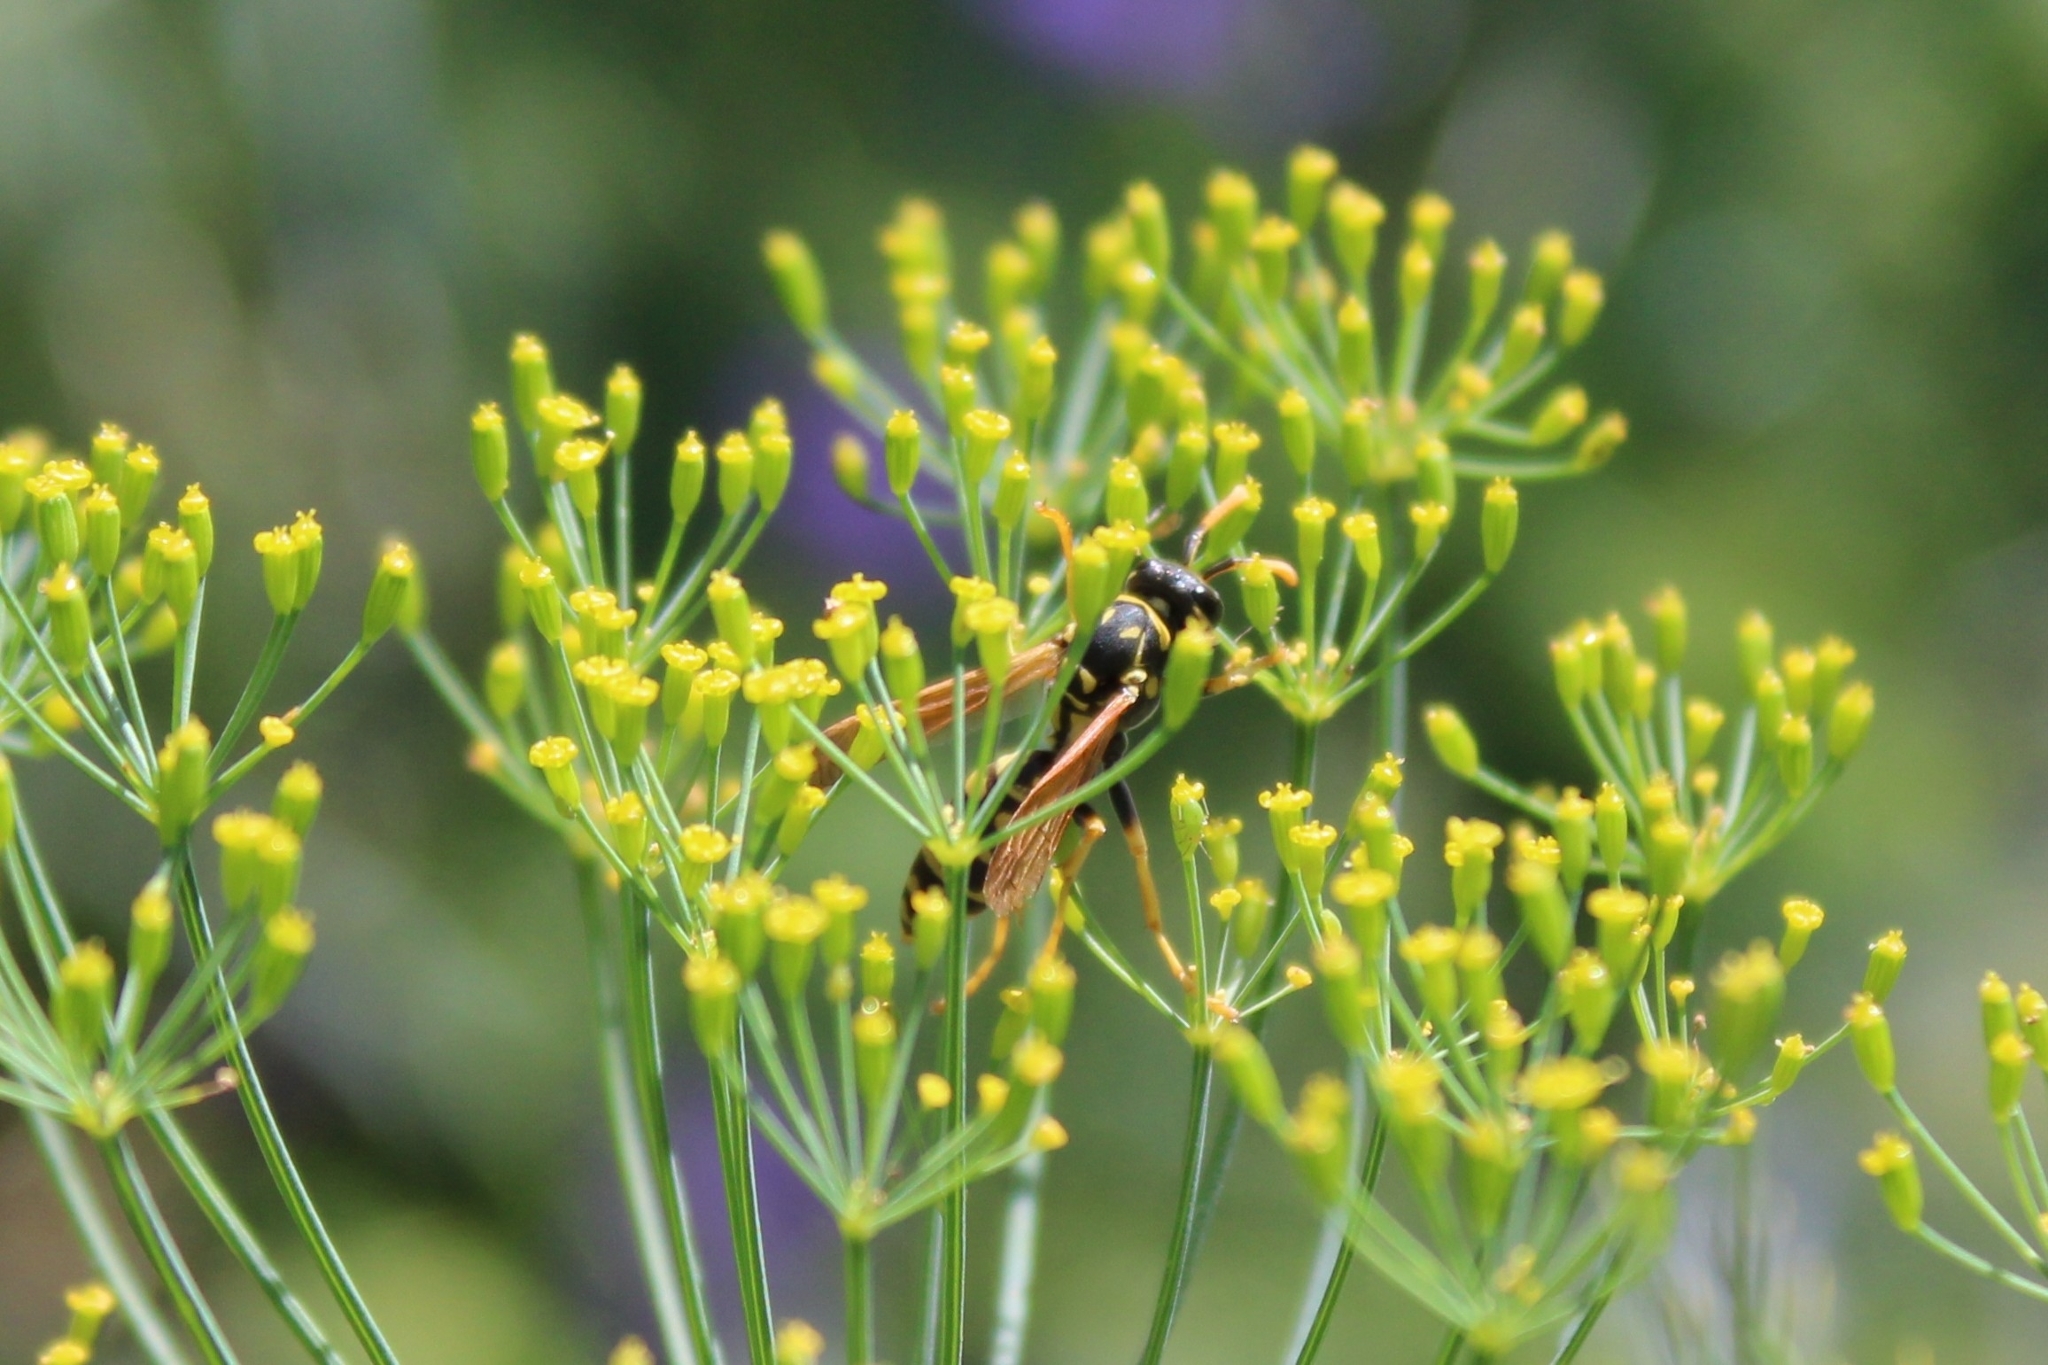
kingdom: Animalia
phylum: Arthropoda
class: Insecta
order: Hymenoptera
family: Eumenidae
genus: Polistes
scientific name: Polistes dominula
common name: Paper wasp
